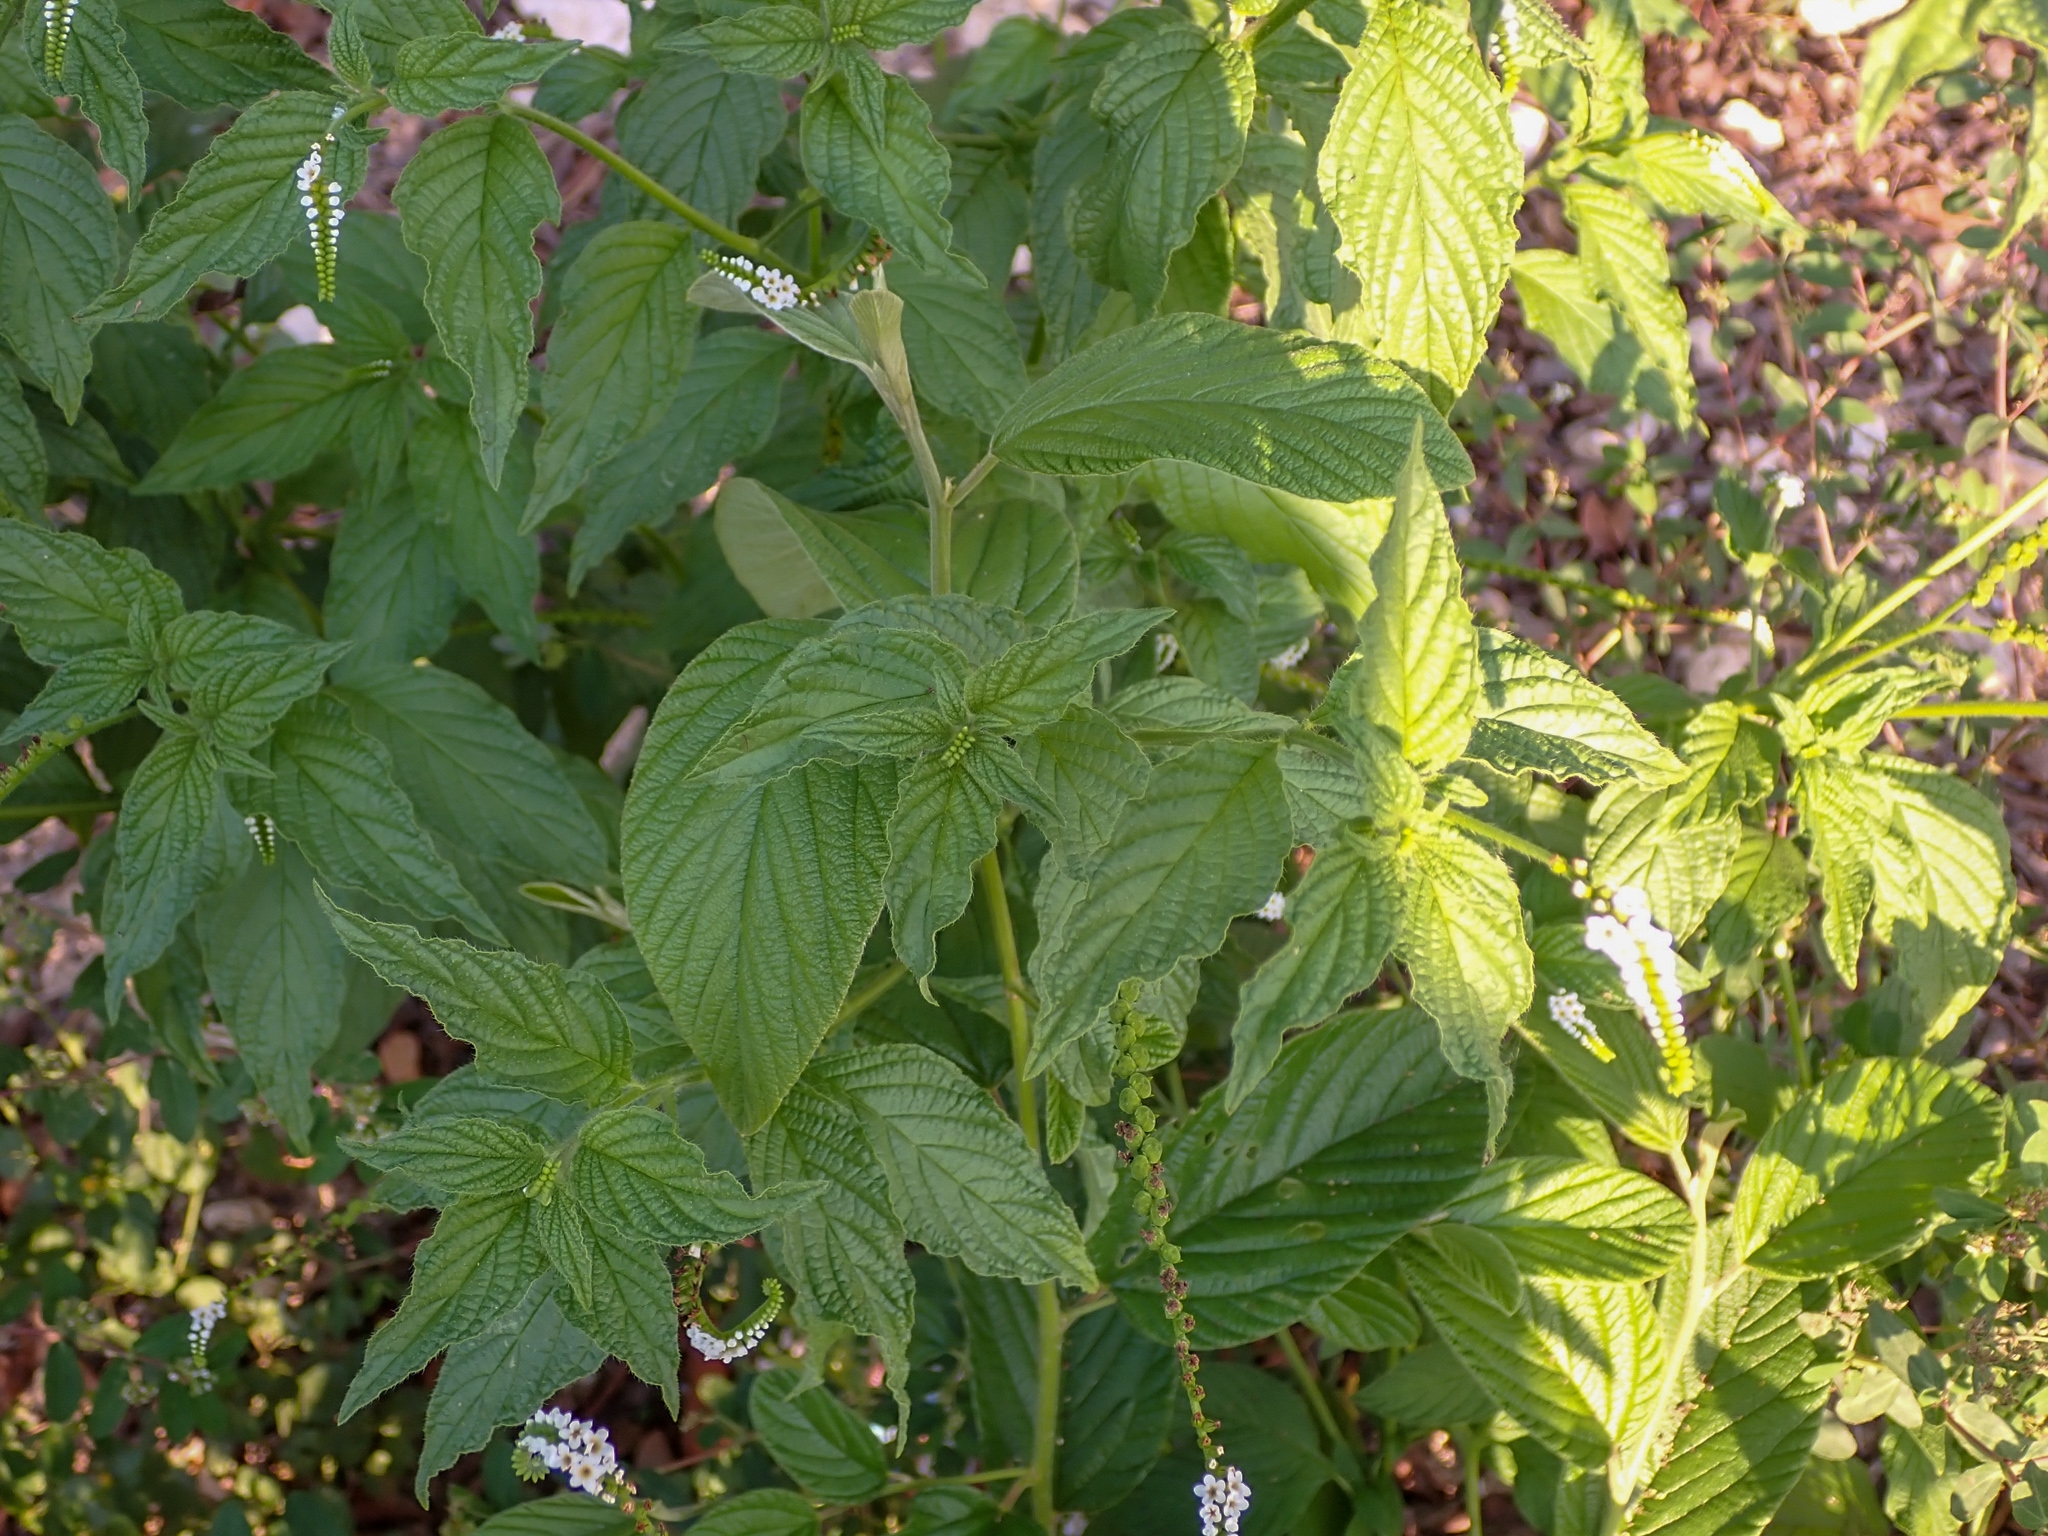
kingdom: Plantae
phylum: Tracheophyta
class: Magnoliopsida
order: Boraginales
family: Heliotropiaceae
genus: Heliotropium
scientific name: Heliotropium angiospermum
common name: Eye bright
